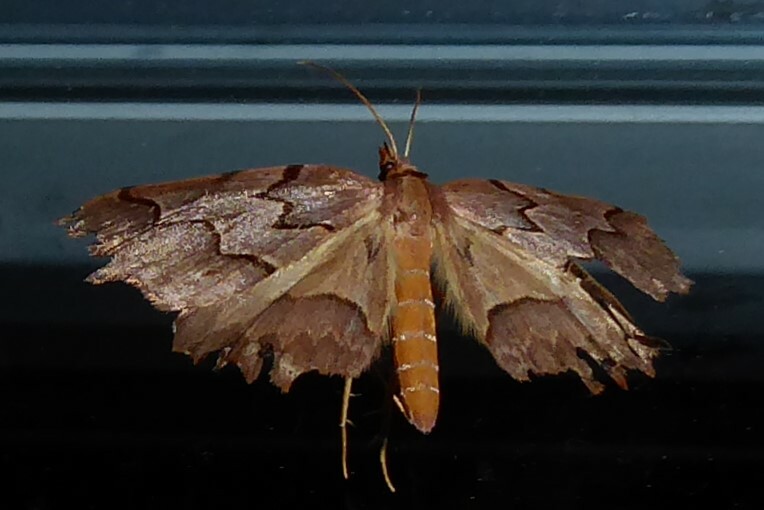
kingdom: Animalia
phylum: Arthropoda
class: Insecta
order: Lepidoptera
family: Geometridae
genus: Ischalis
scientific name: Ischalis fortinata
